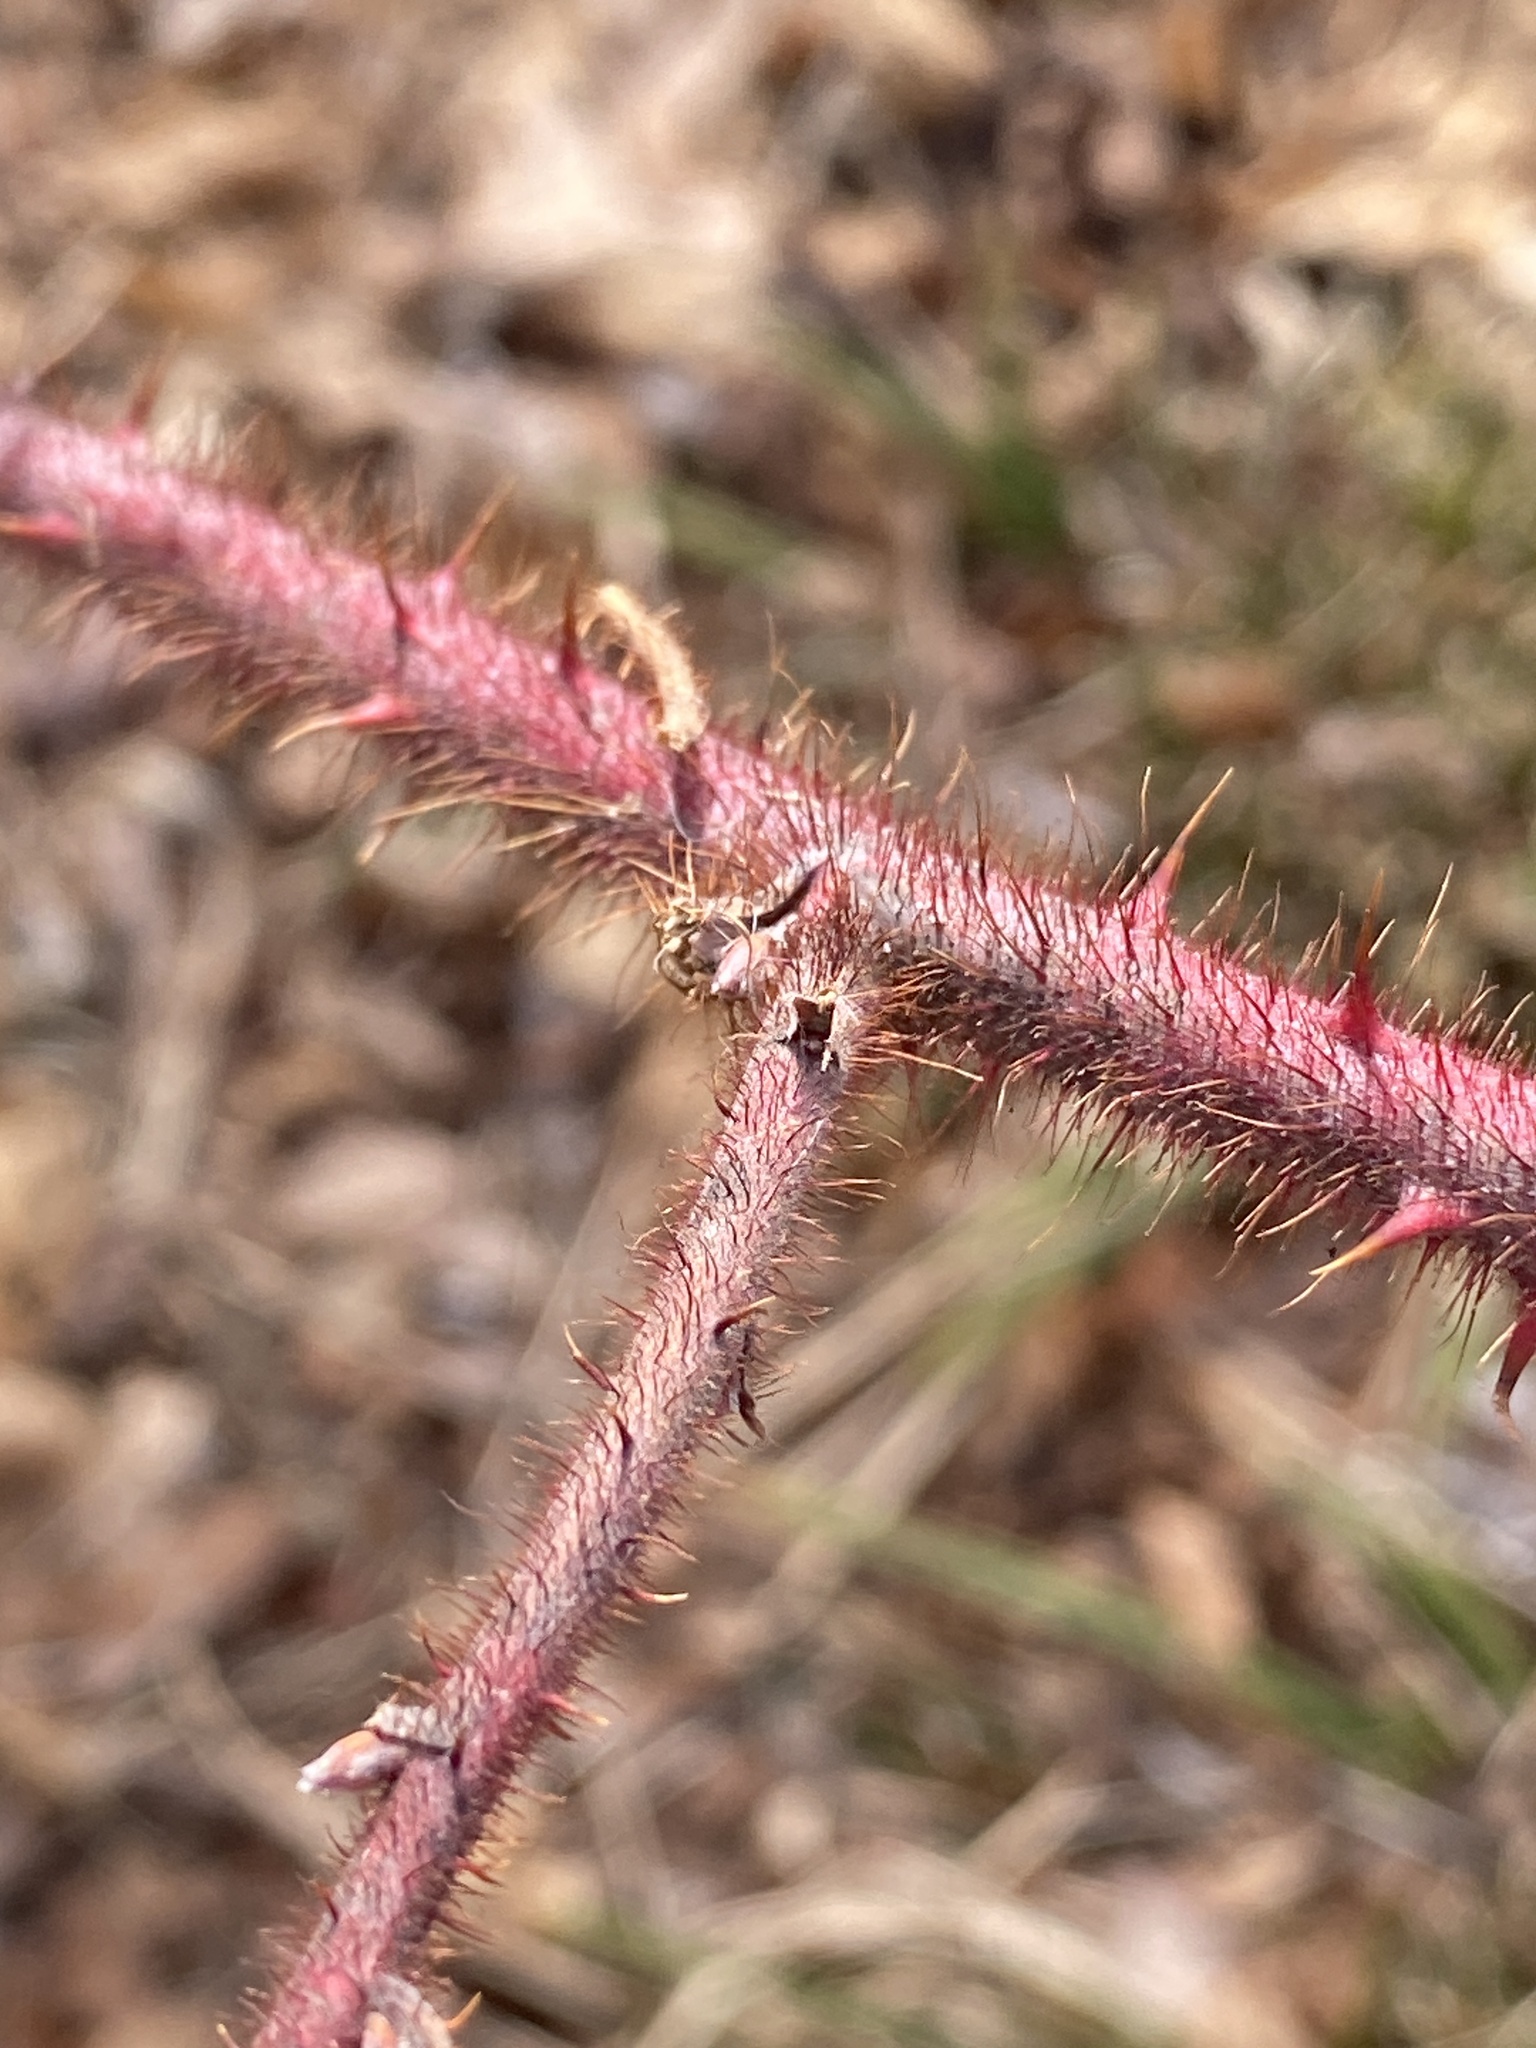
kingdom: Plantae
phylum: Tracheophyta
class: Magnoliopsida
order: Rosales
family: Rosaceae
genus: Rubus
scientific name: Rubus phoenicolasius
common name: Japanese wineberry
